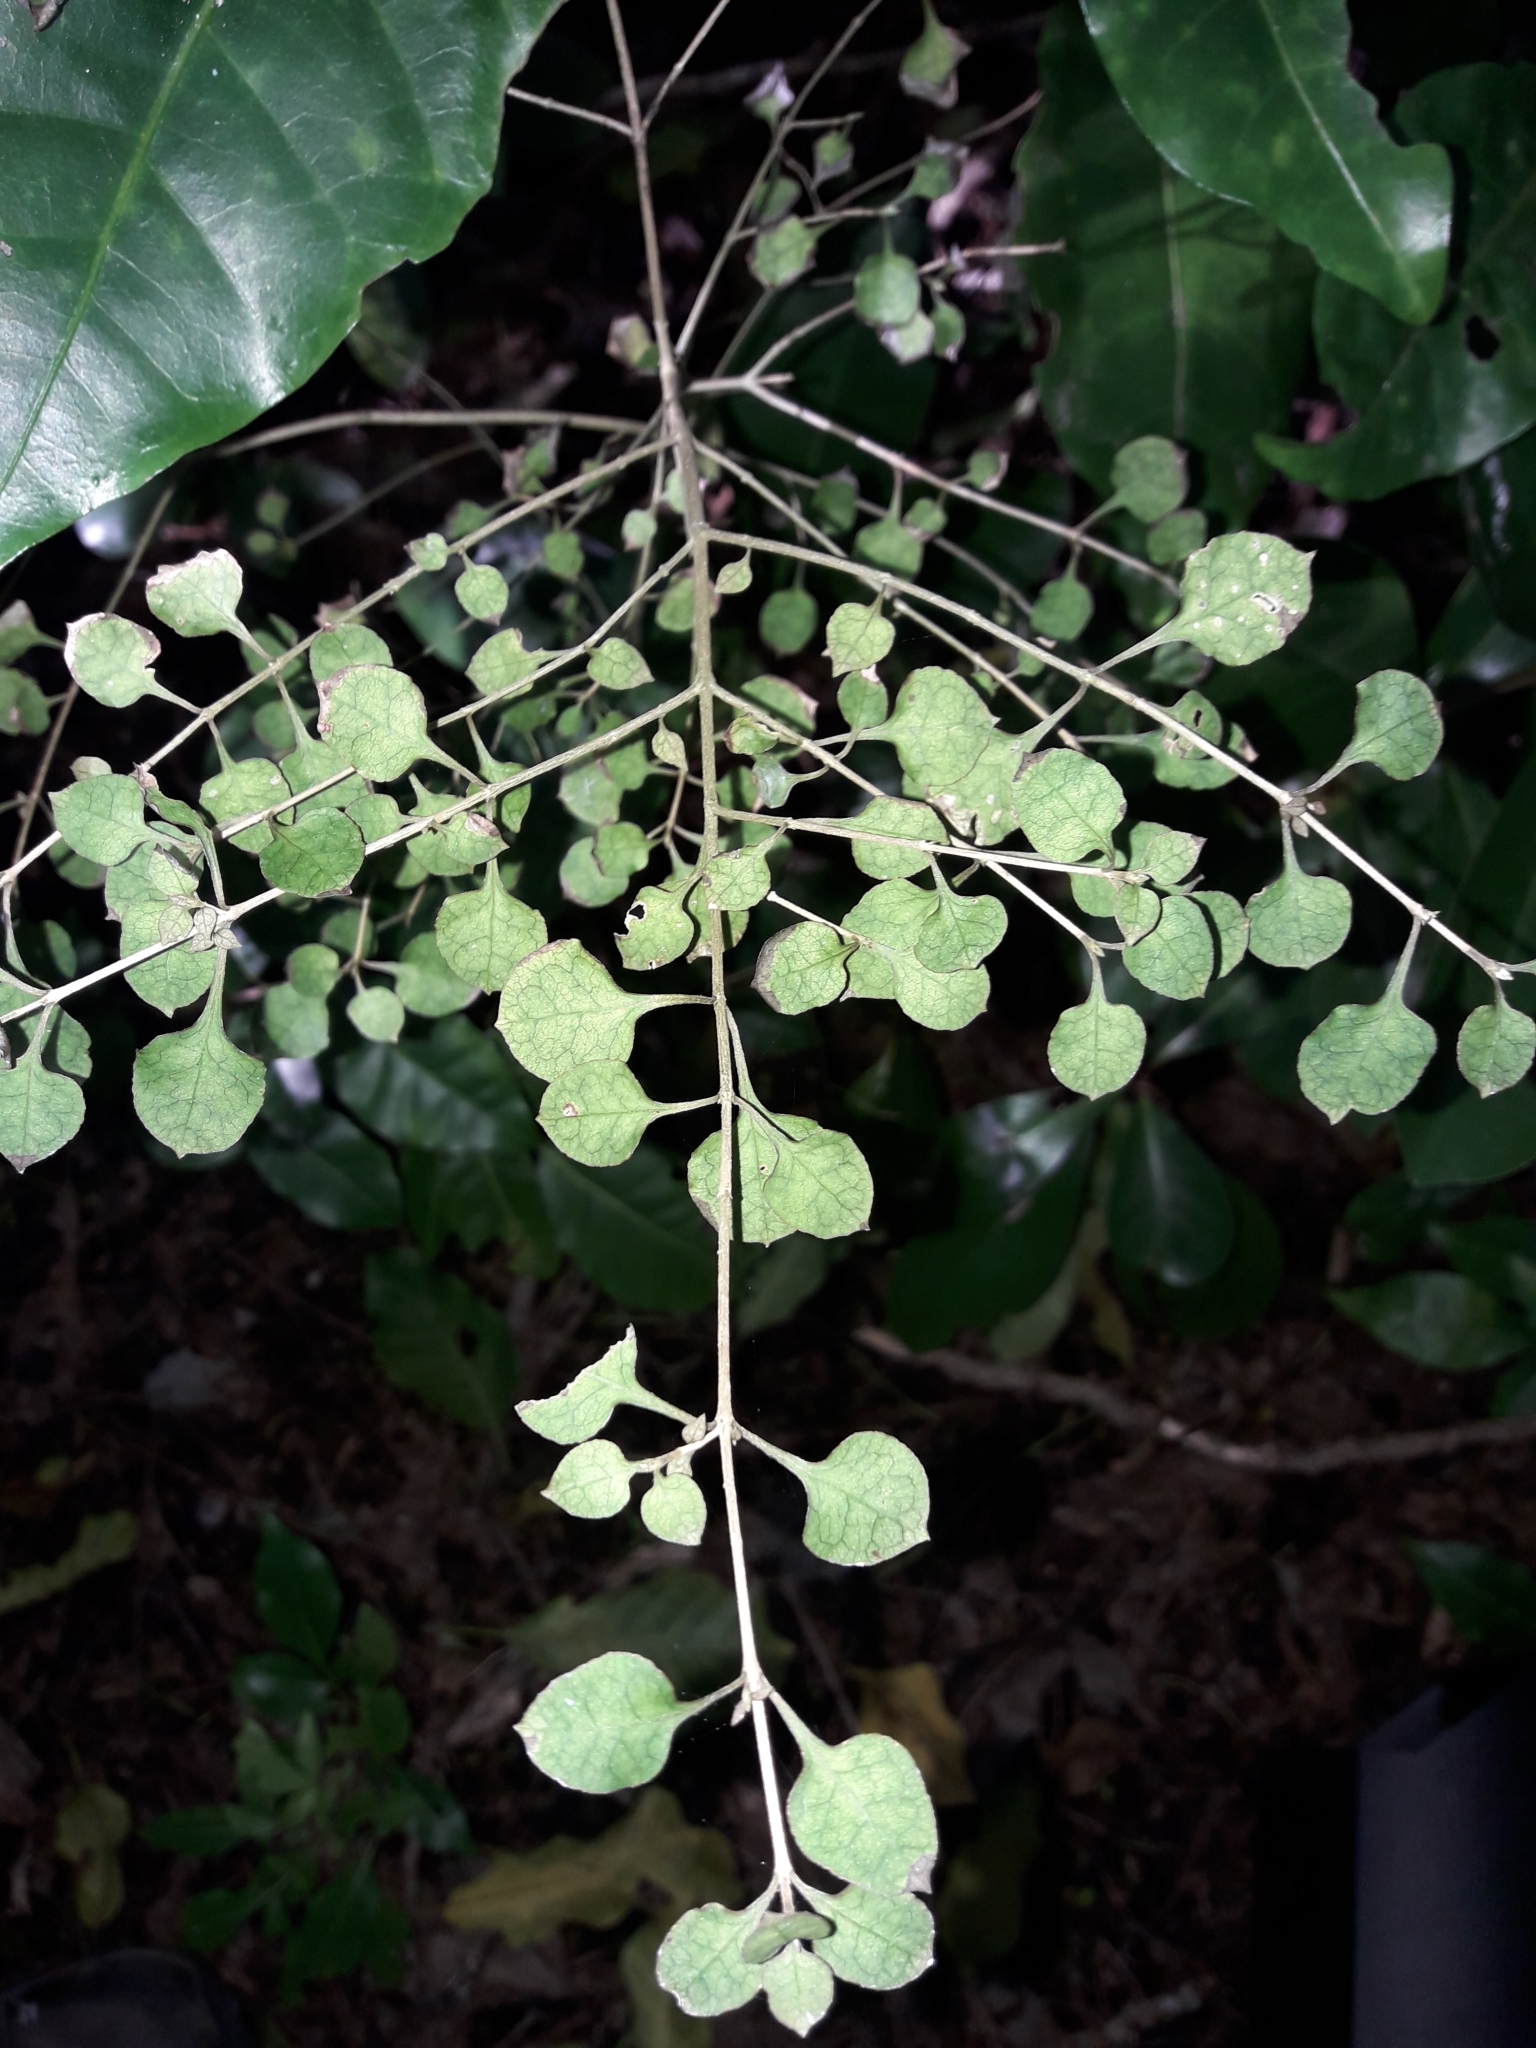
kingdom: Plantae
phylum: Tracheophyta
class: Magnoliopsida
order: Gentianales
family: Rubiaceae
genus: Coprosma
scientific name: Coprosma areolata
